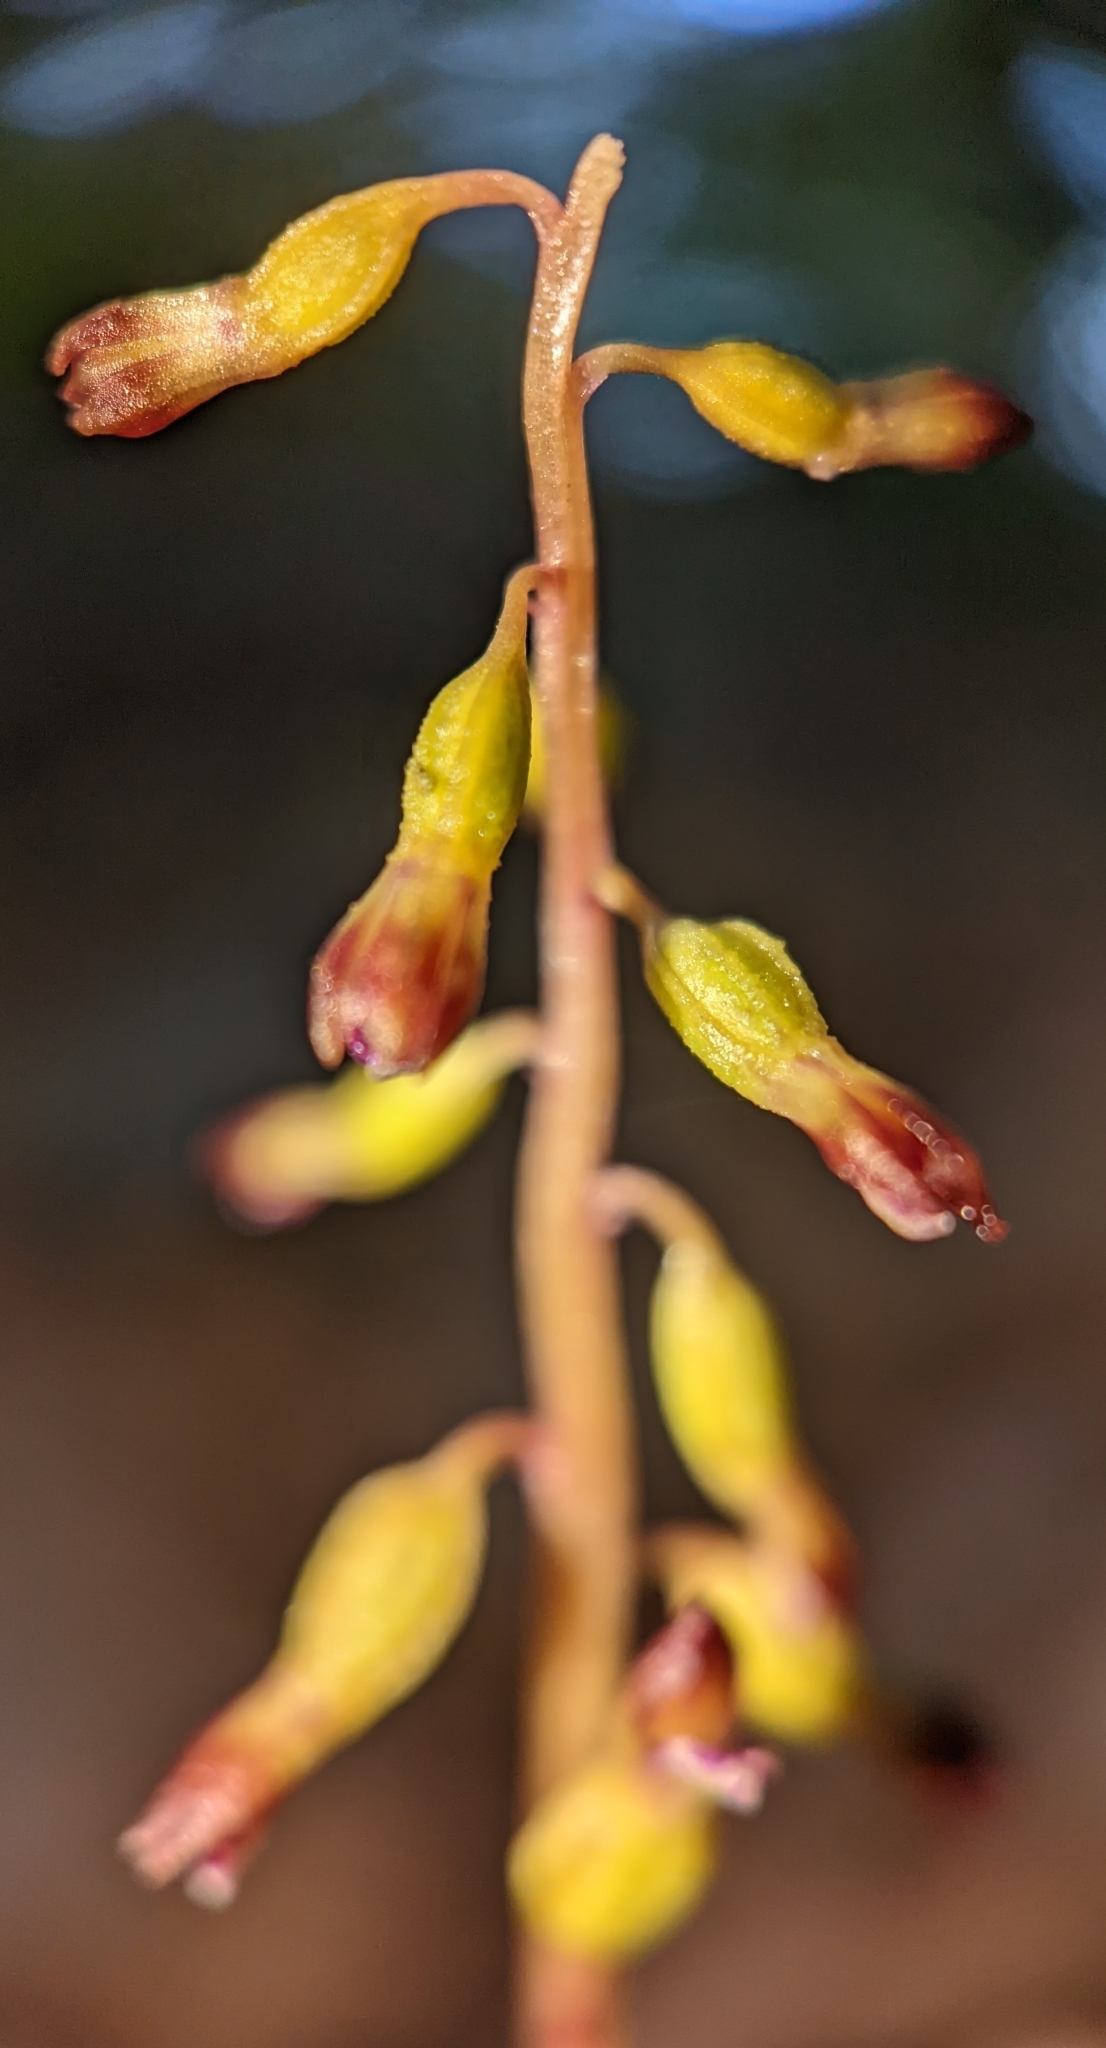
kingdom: Plantae
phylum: Tracheophyta
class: Liliopsida
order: Asparagales
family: Orchidaceae
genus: Corallorhiza
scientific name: Corallorhiza odontorhiza
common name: Autumn coralroot
